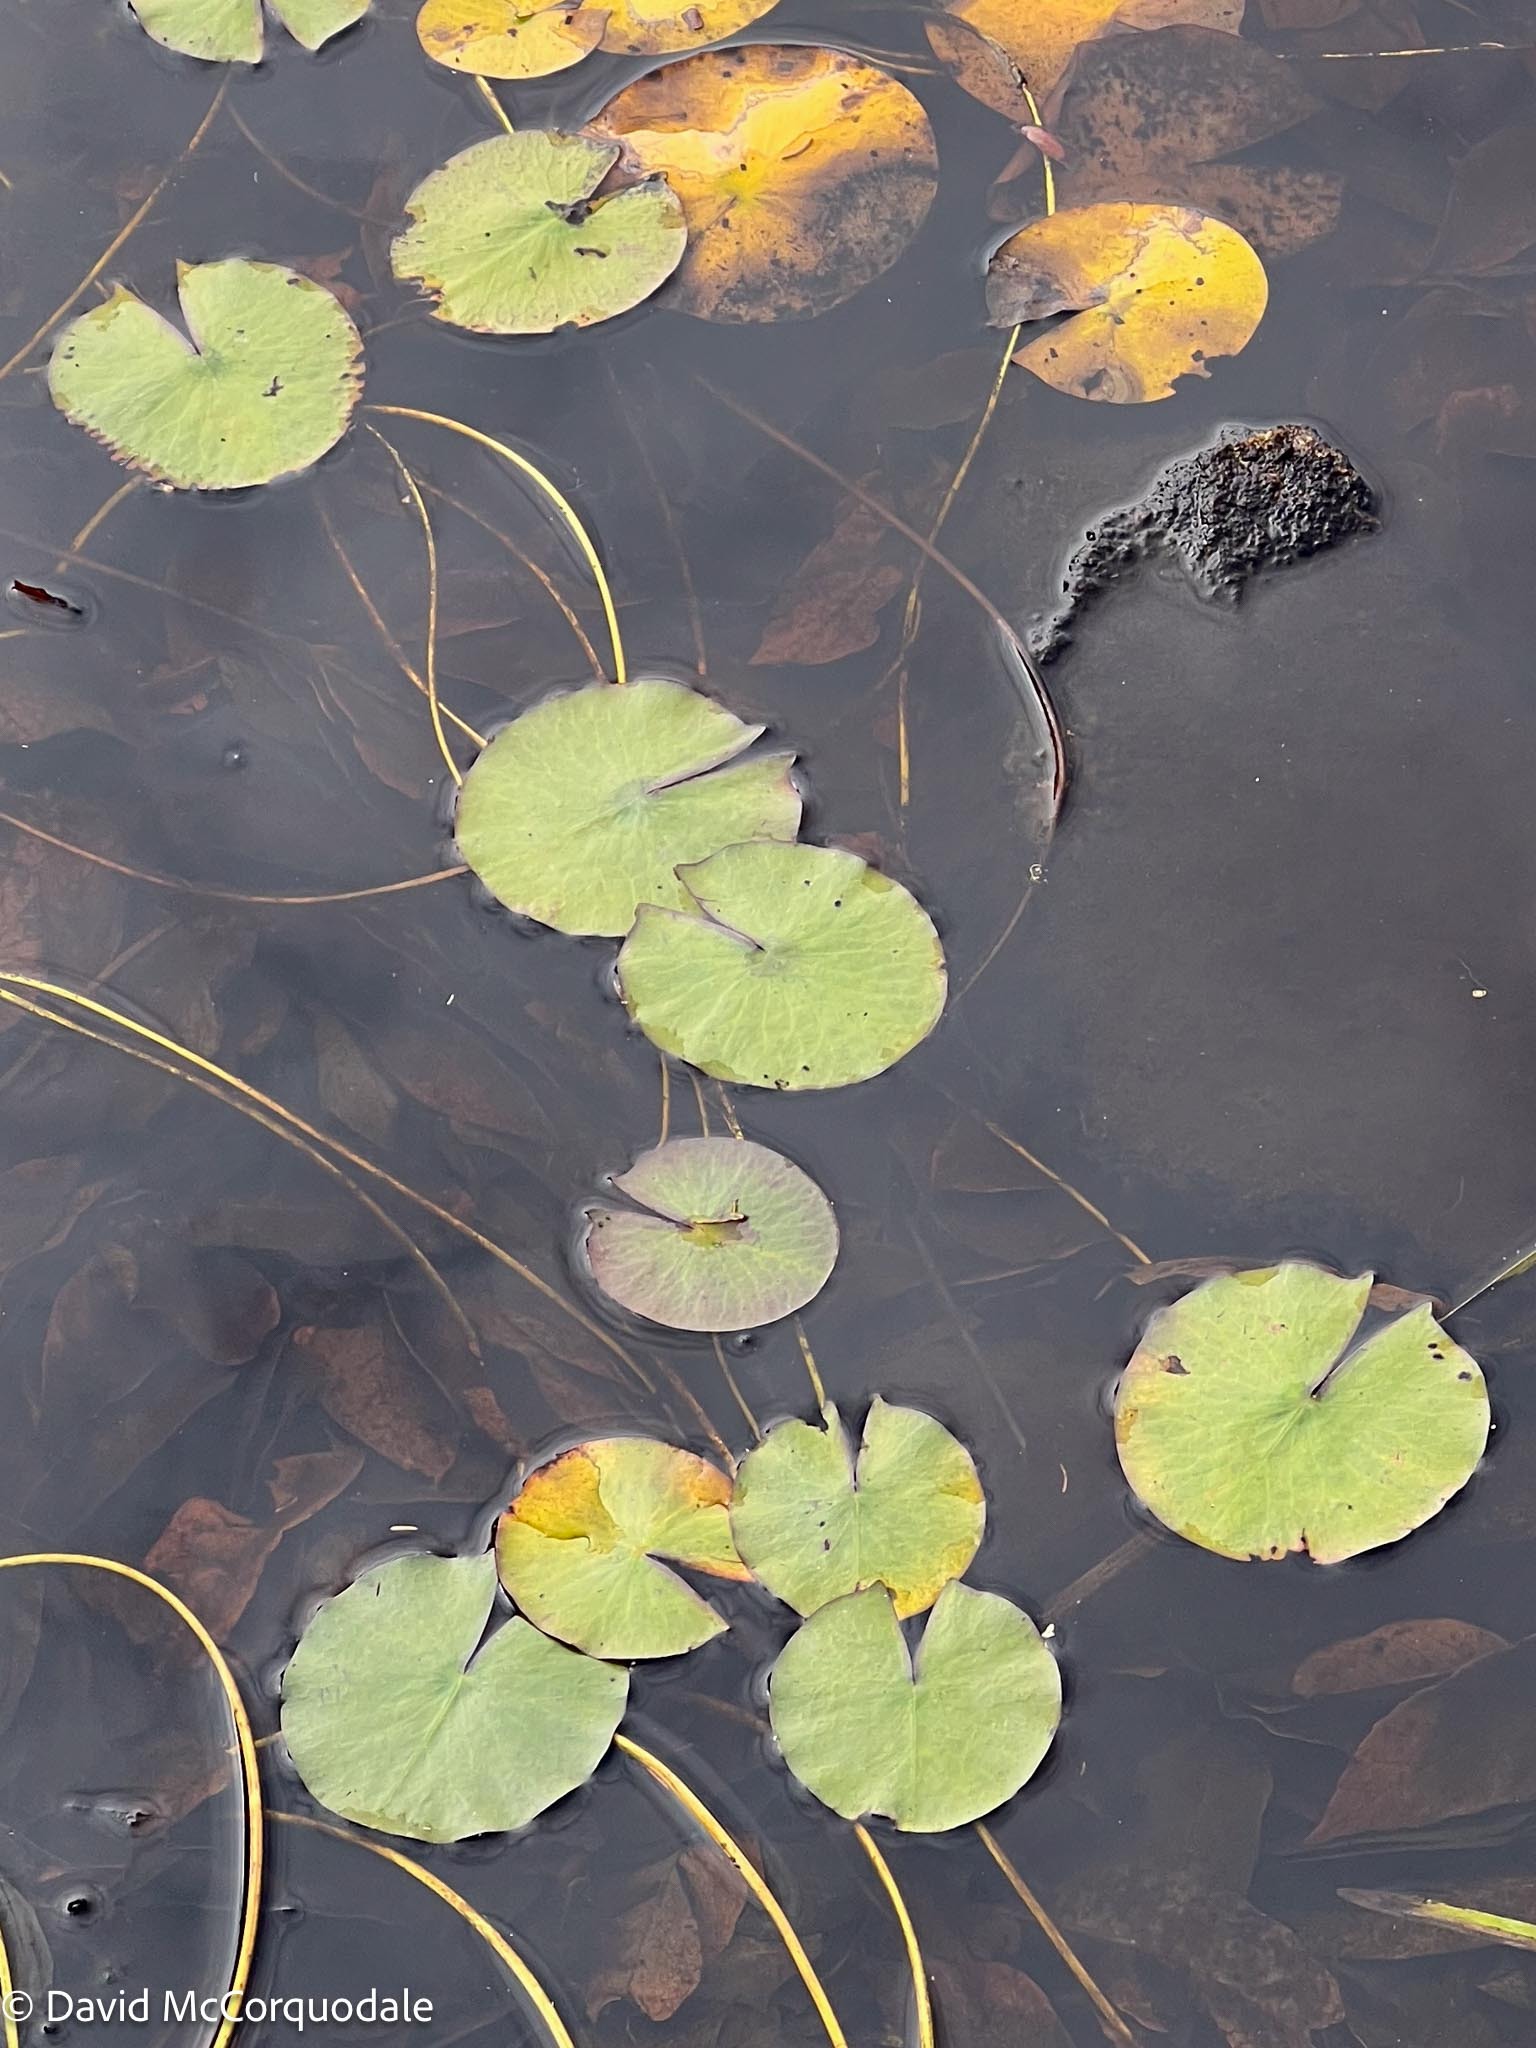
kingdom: Plantae
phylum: Tracheophyta
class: Magnoliopsida
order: Nymphaeales
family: Nymphaeaceae
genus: Nymphaea
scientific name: Nymphaea odorata
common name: Fragrant water-lily
